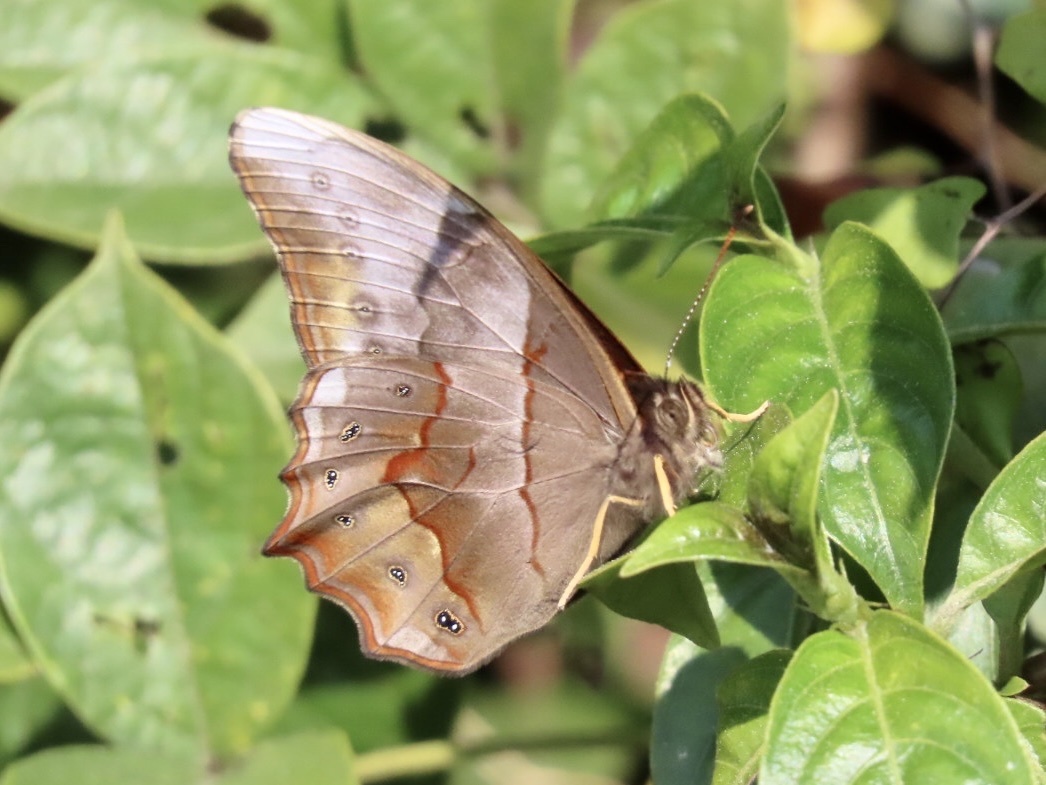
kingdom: Animalia
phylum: Arthropoda
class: Insecta
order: Lepidoptera
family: Nymphalidae
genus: Lethe
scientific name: Lethe chandica
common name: Angled red forester
